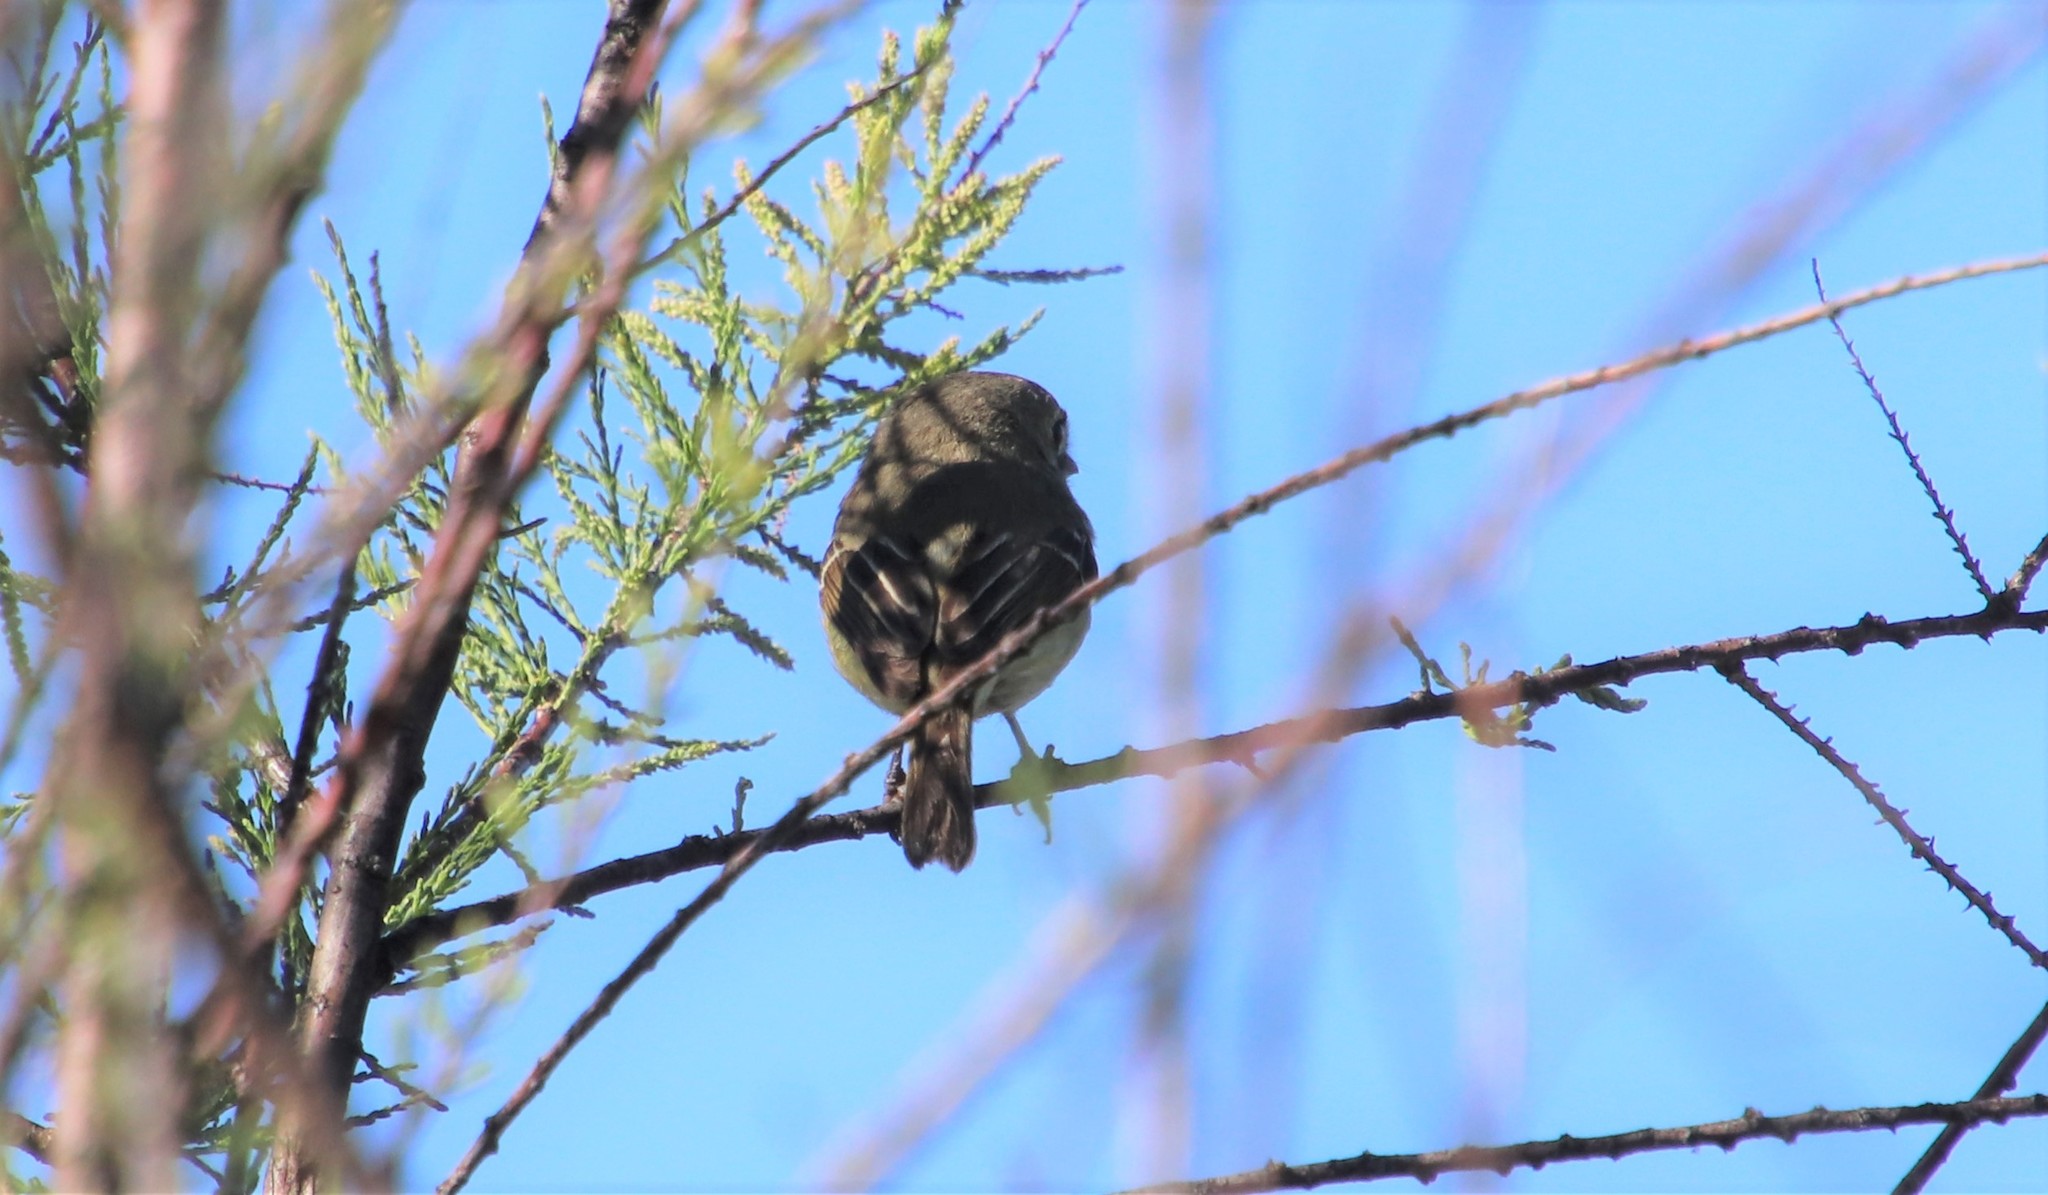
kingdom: Animalia
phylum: Chordata
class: Aves
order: Passeriformes
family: Vireonidae
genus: Vireo
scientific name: Vireo huttoni
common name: Hutton's vireo
